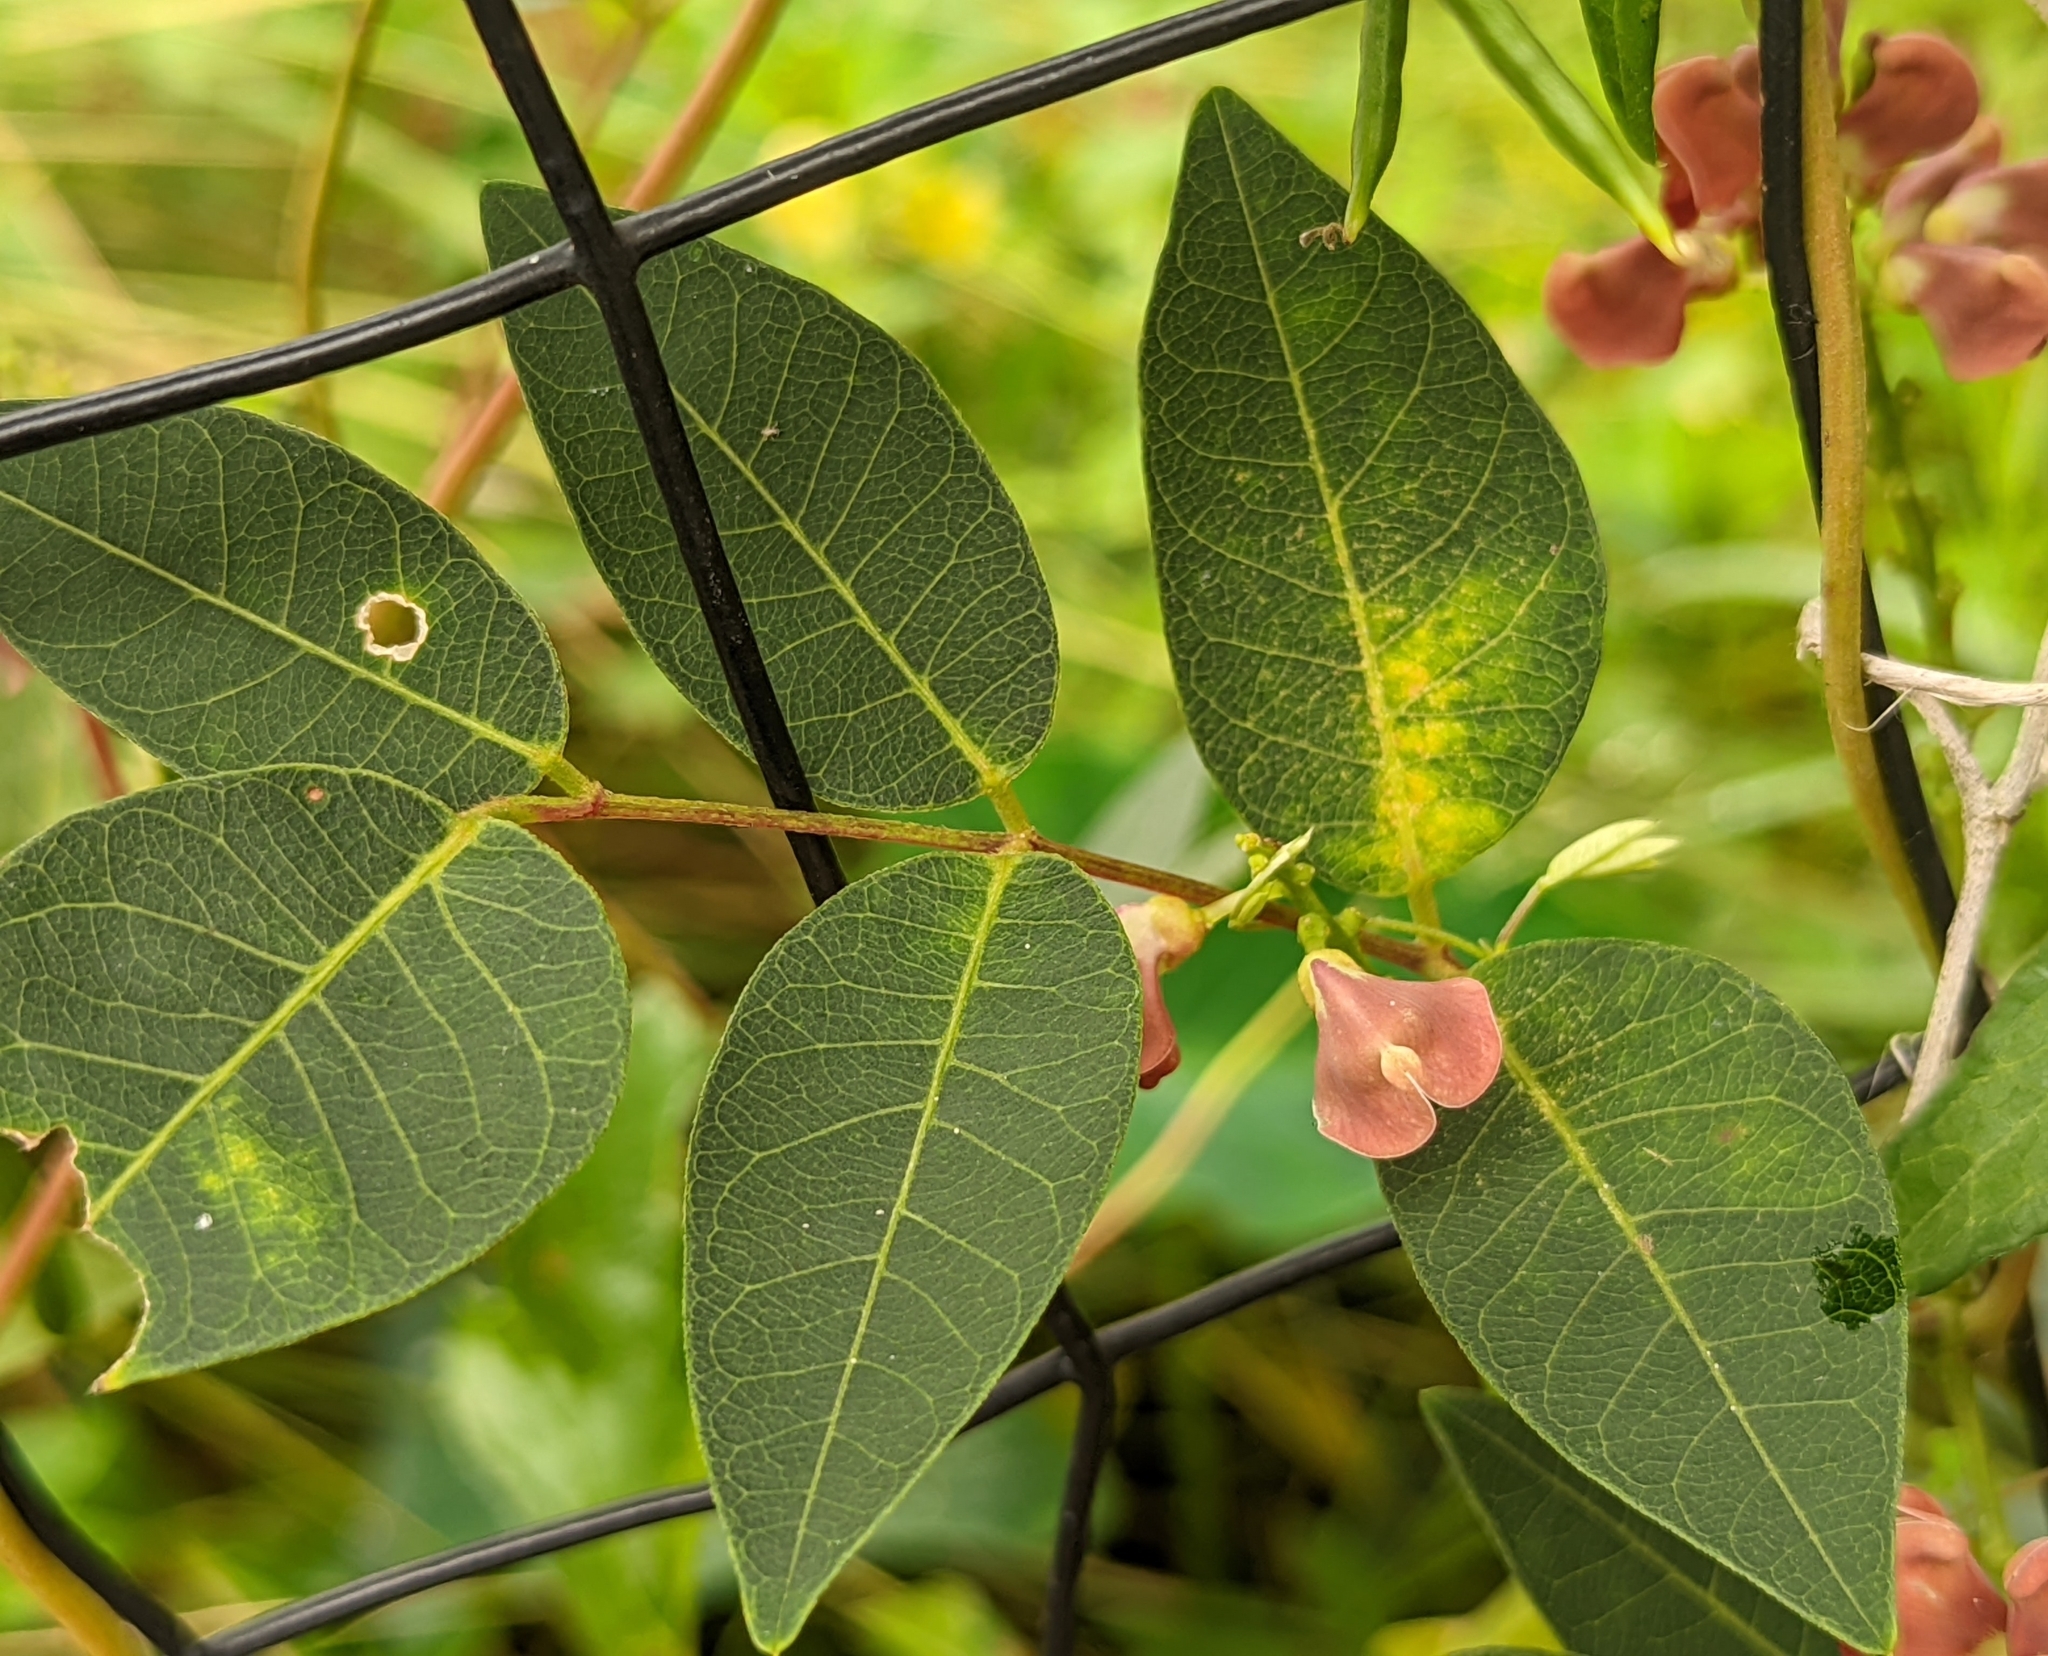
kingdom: Plantae
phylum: Tracheophyta
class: Magnoliopsida
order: Fabales
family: Fabaceae
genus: Apios
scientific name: Apios americana
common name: American potato-bean
